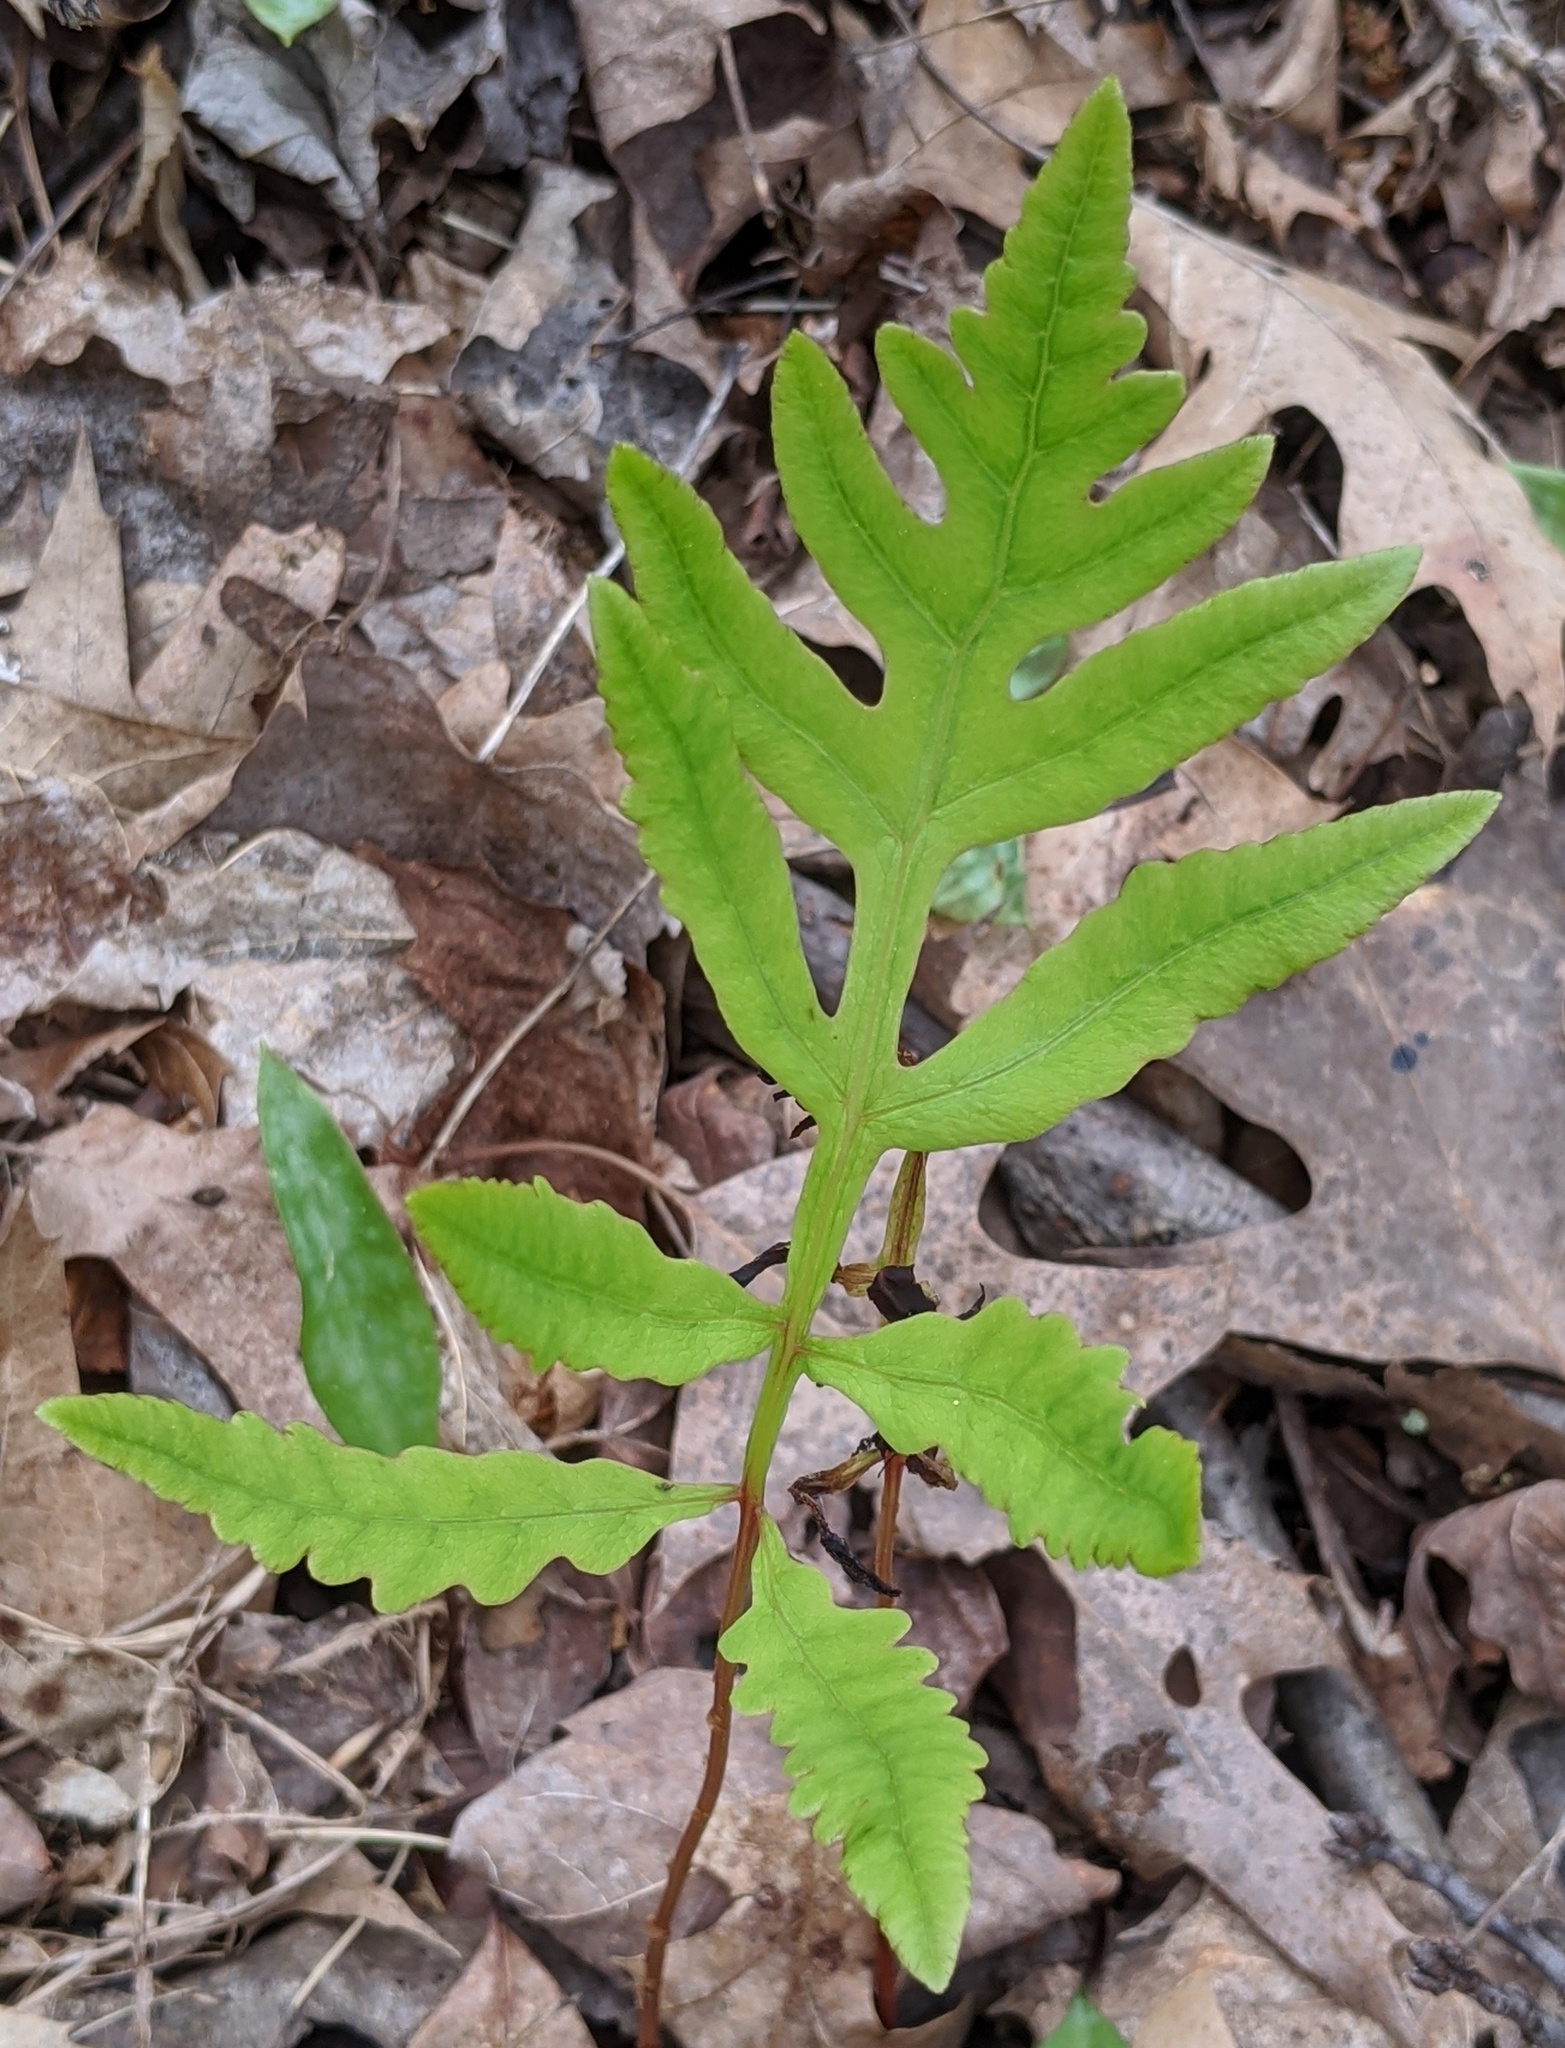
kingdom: Plantae
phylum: Tracheophyta
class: Polypodiopsida
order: Polypodiales
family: Onocleaceae
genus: Onoclea
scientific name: Onoclea sensibilis
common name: Sensitive fern
